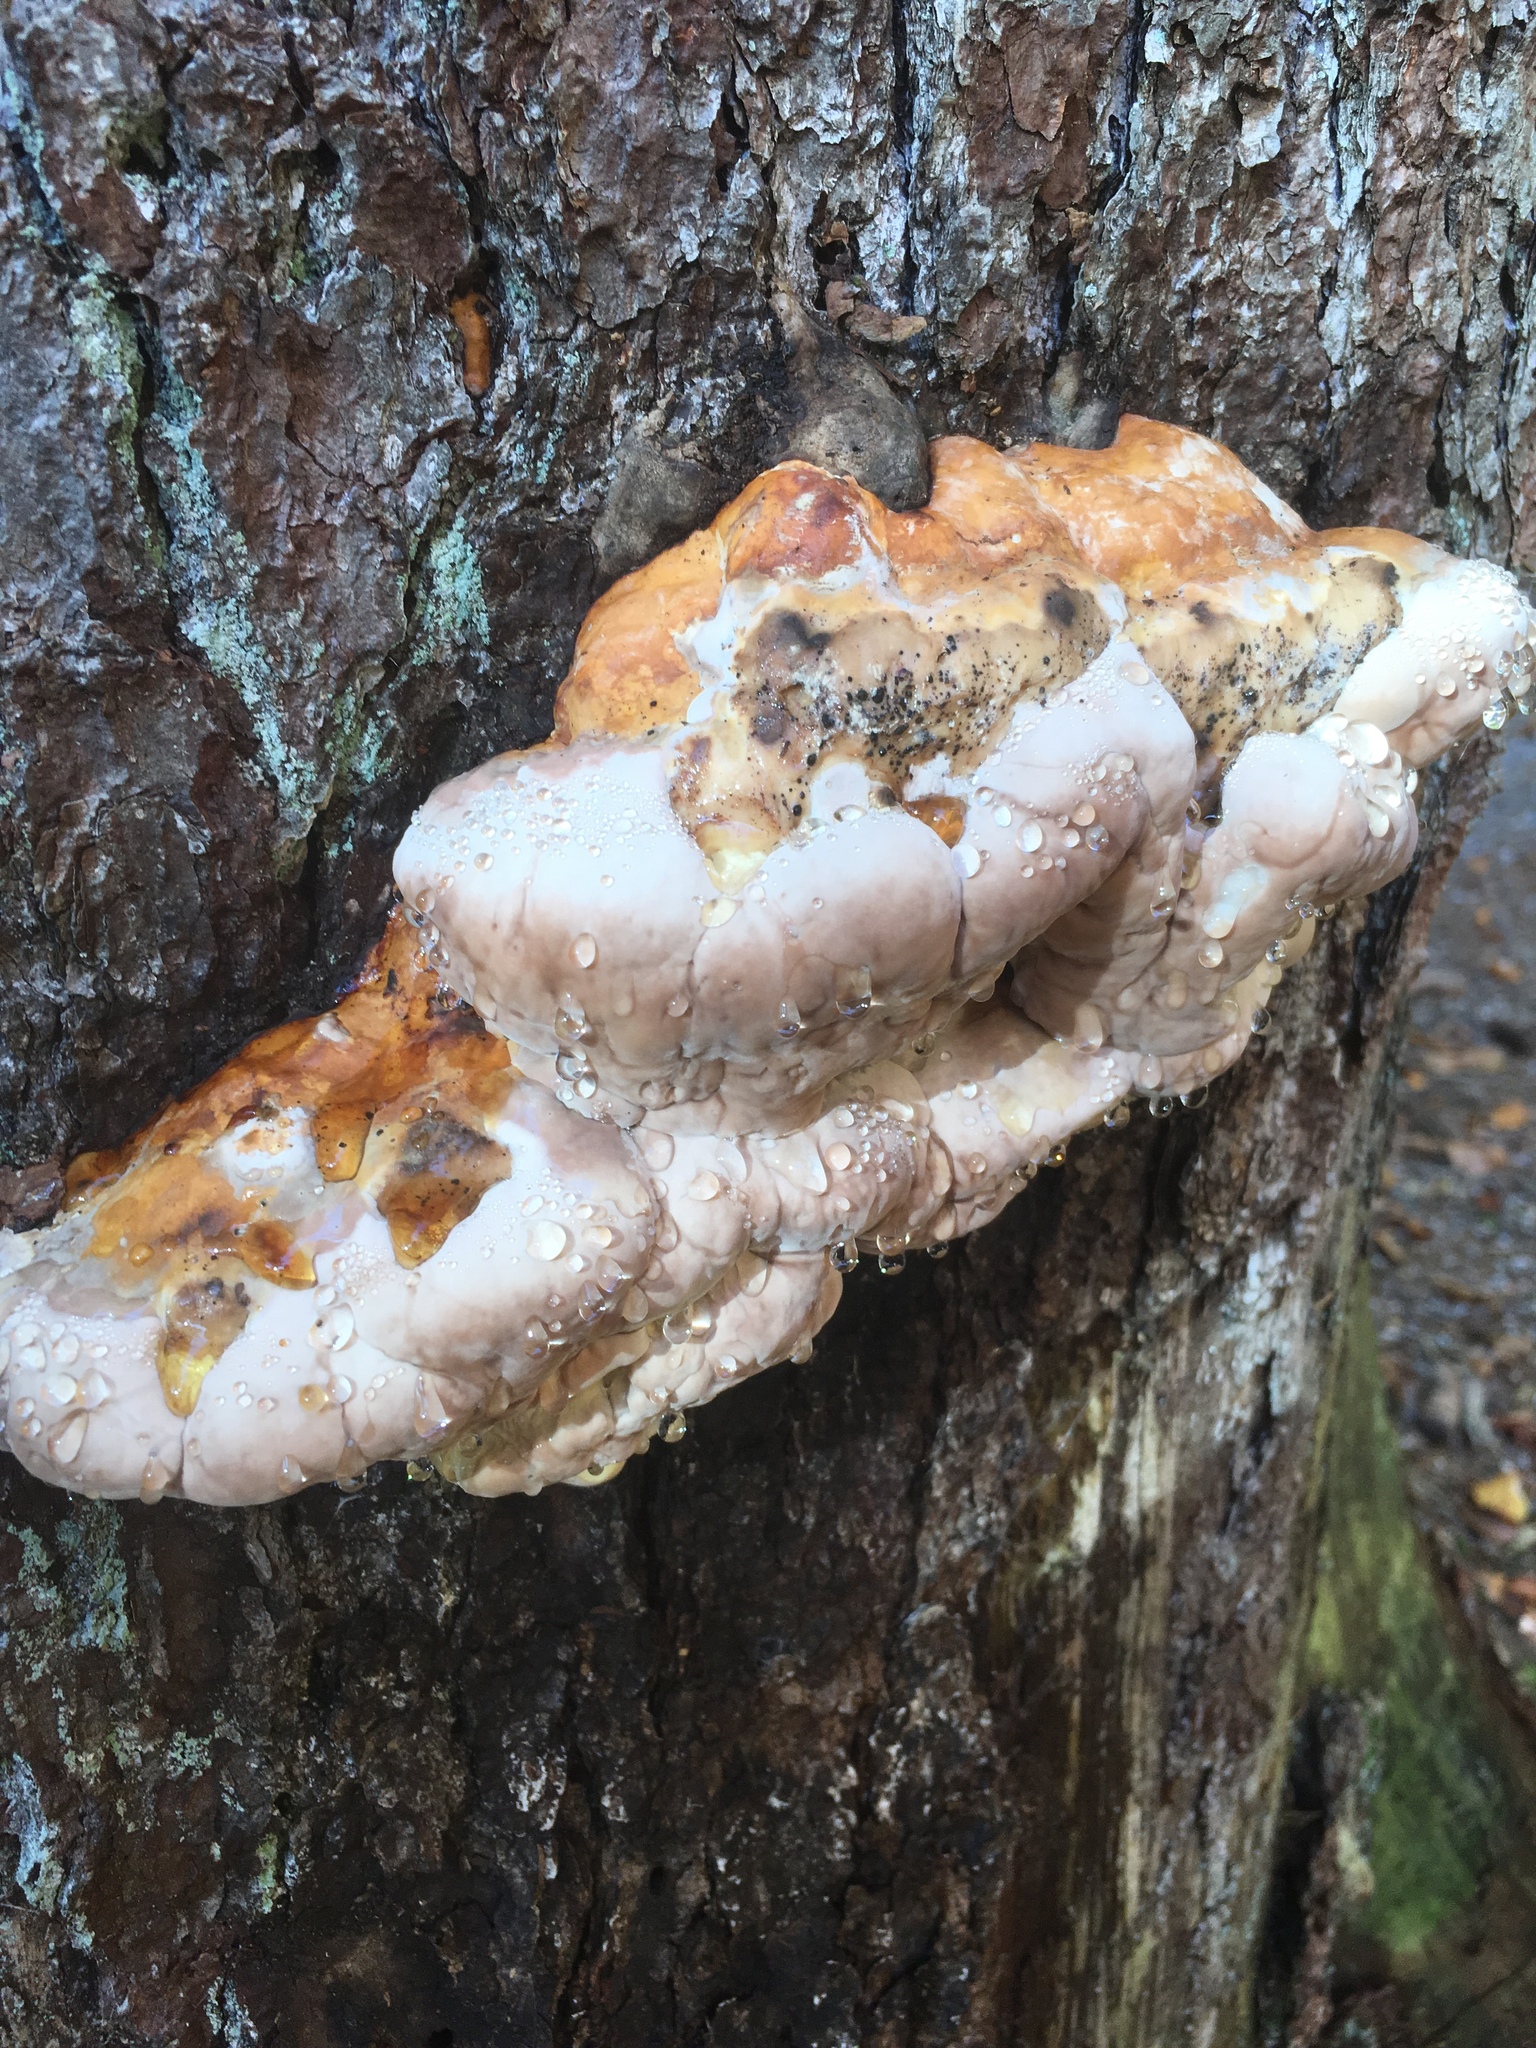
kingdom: Fungi
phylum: Basidiomycota
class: Agaricomycetes
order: Polyporales
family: Fomitopsidaceae
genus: Fomitopsis
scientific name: Fomitopsis pinicola
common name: Red-belted bracket
